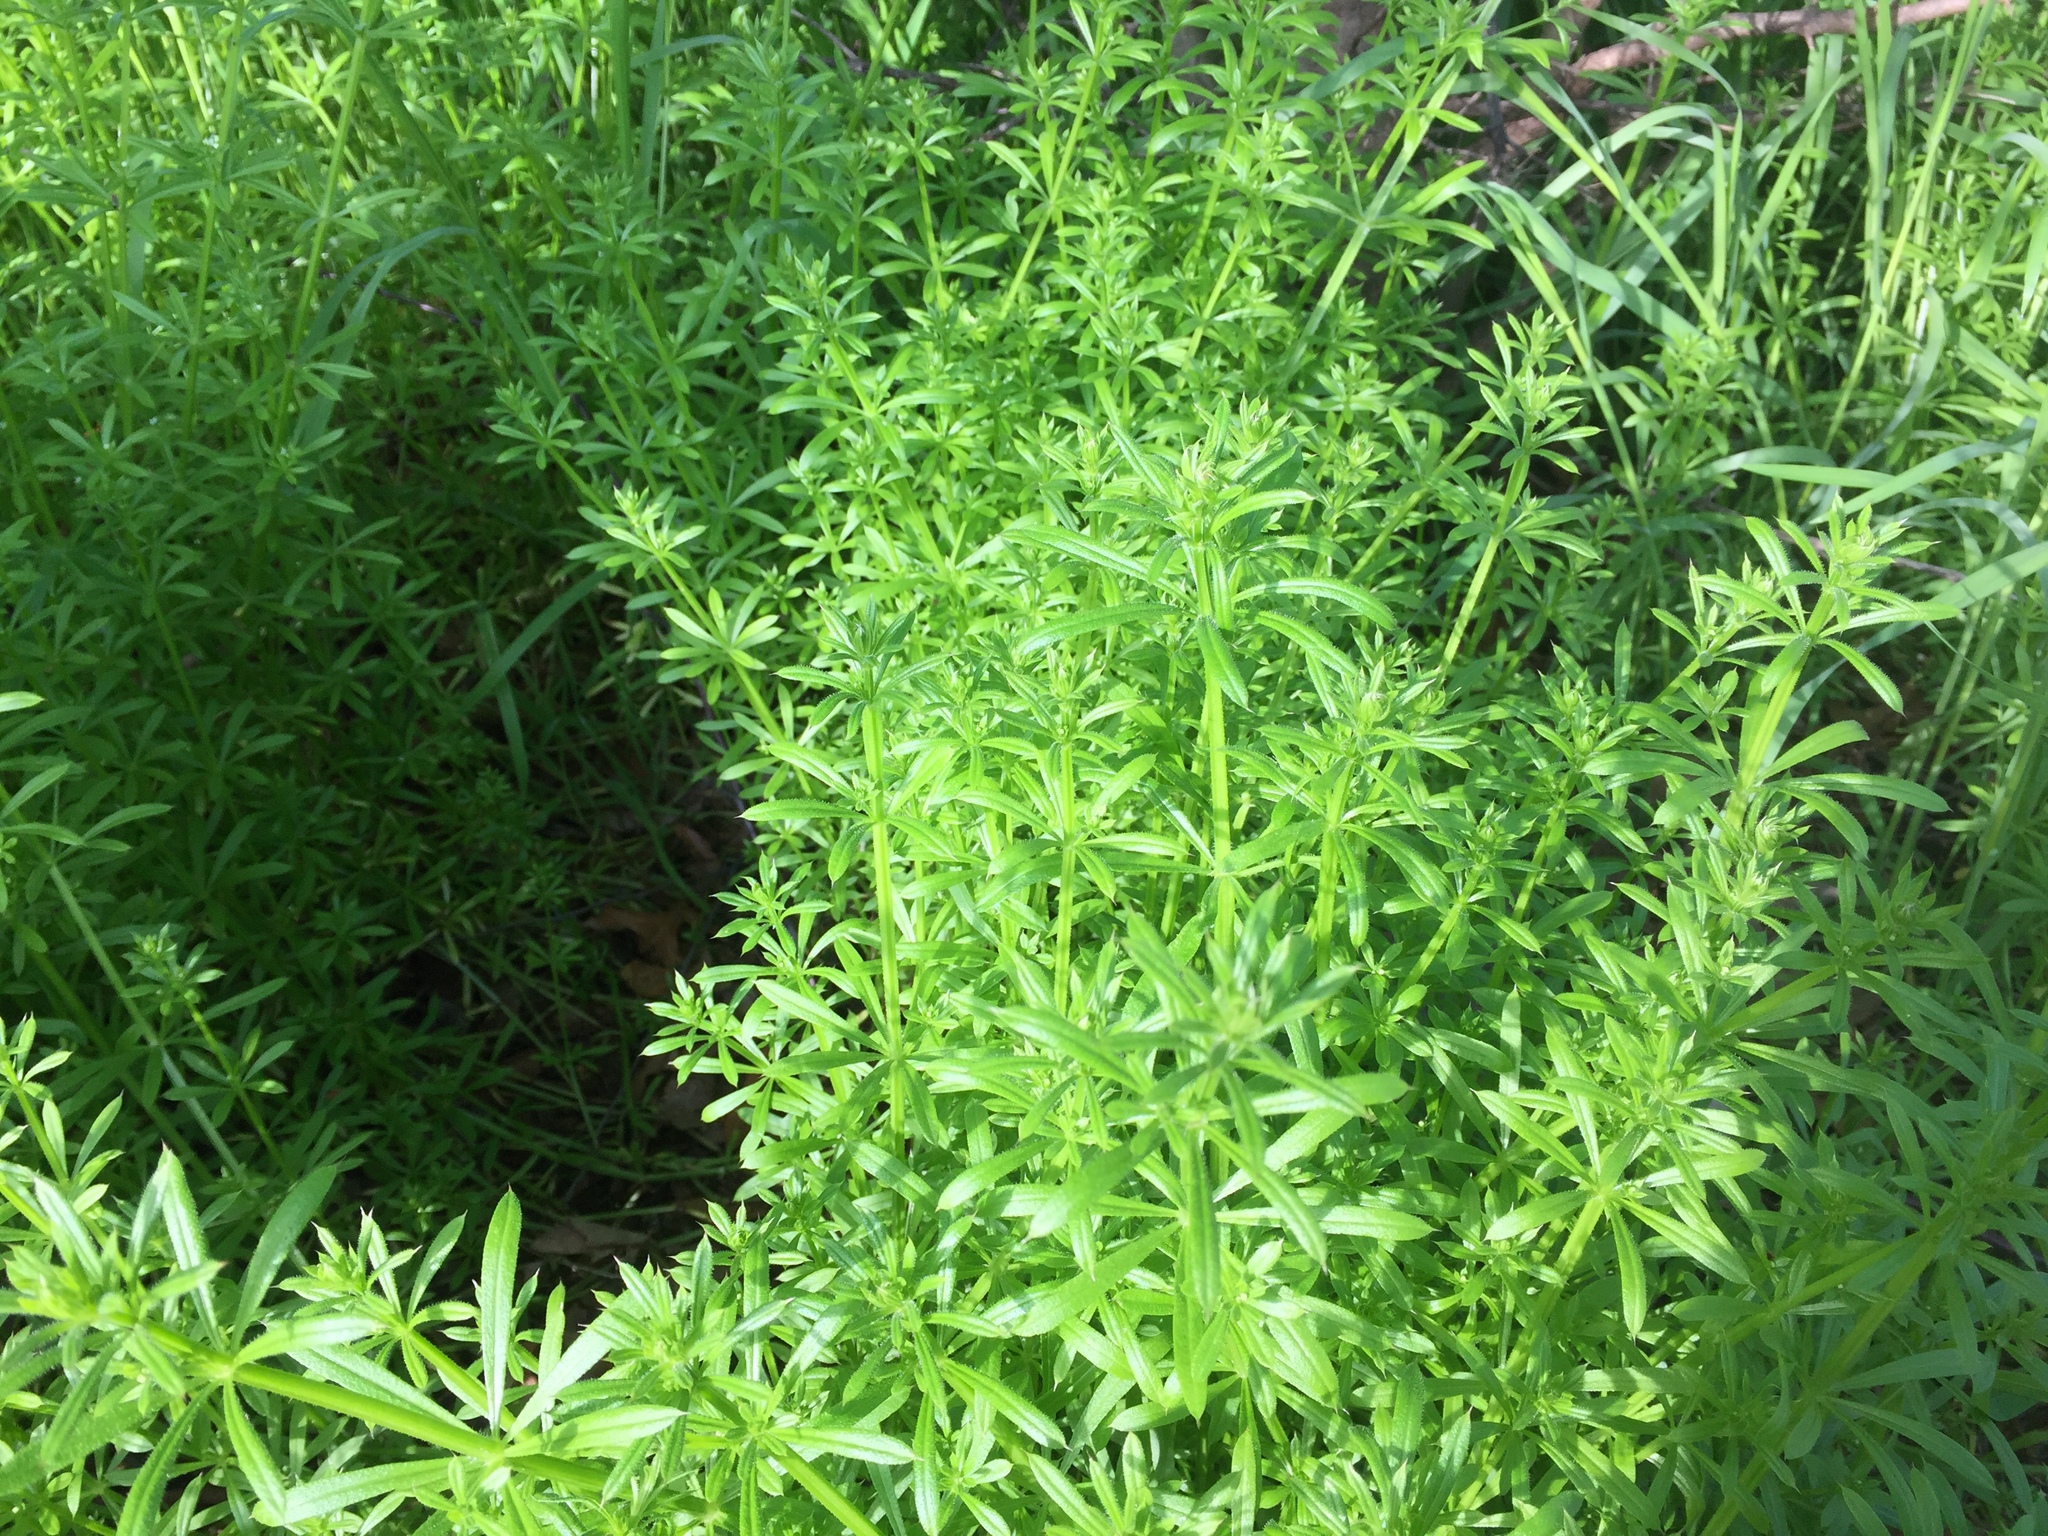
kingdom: Plantae
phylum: Tracheophyta
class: Magnoliopsida
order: Gentianales
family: Rubiaceae
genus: Galium
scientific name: Galium aparine
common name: Cleavers
